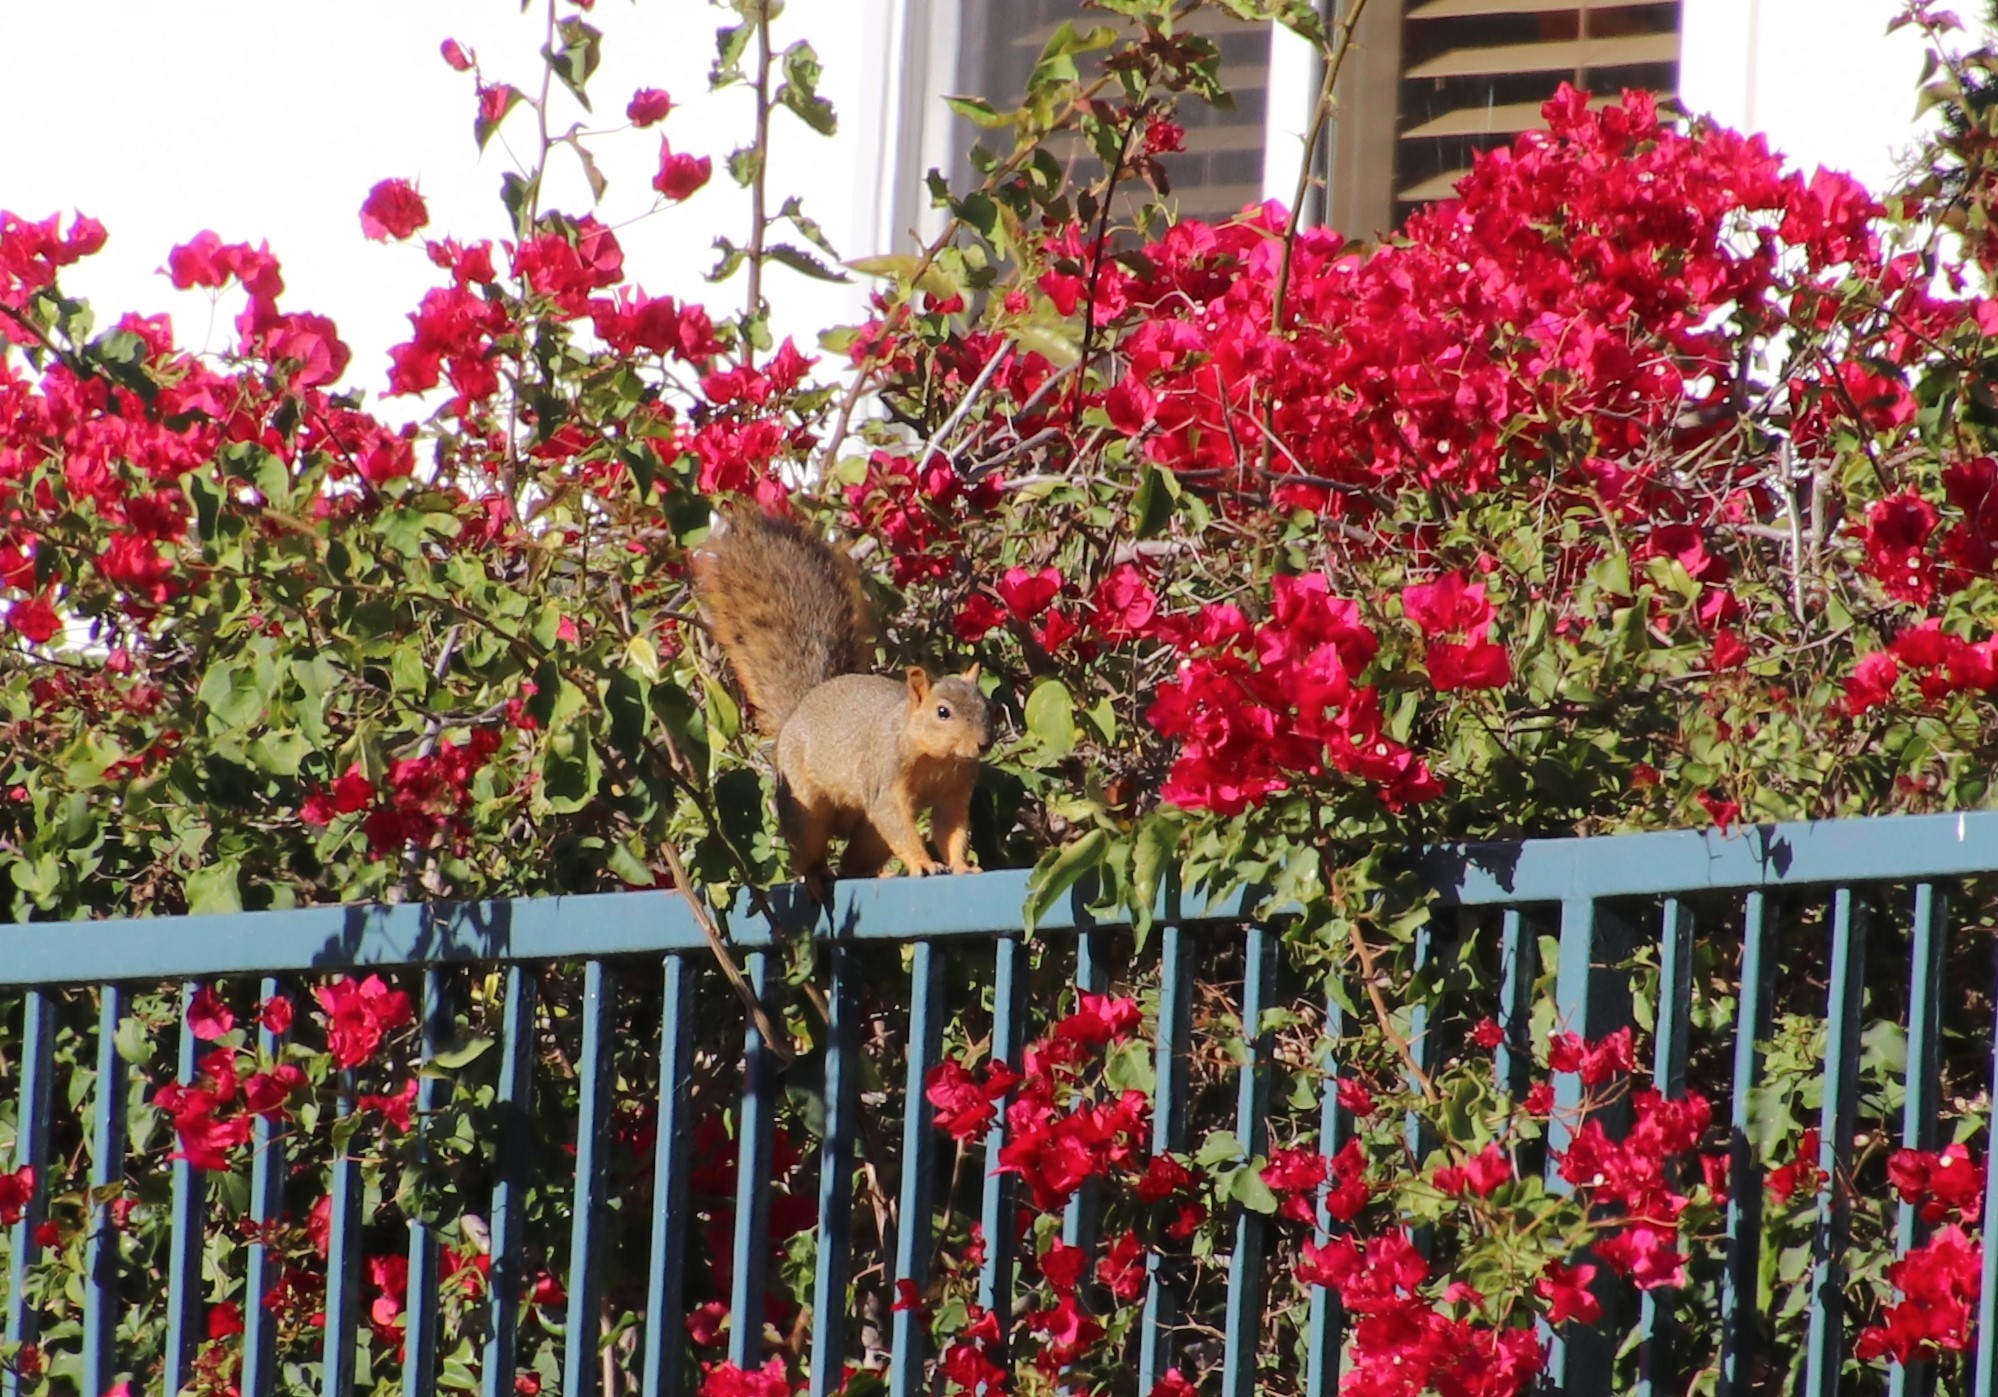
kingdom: Animalia
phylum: Chordata
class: Mammalia
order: Rodentia
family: Sciuridae
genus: Sciurus
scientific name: Sciurus niger
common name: Fox squirrel
